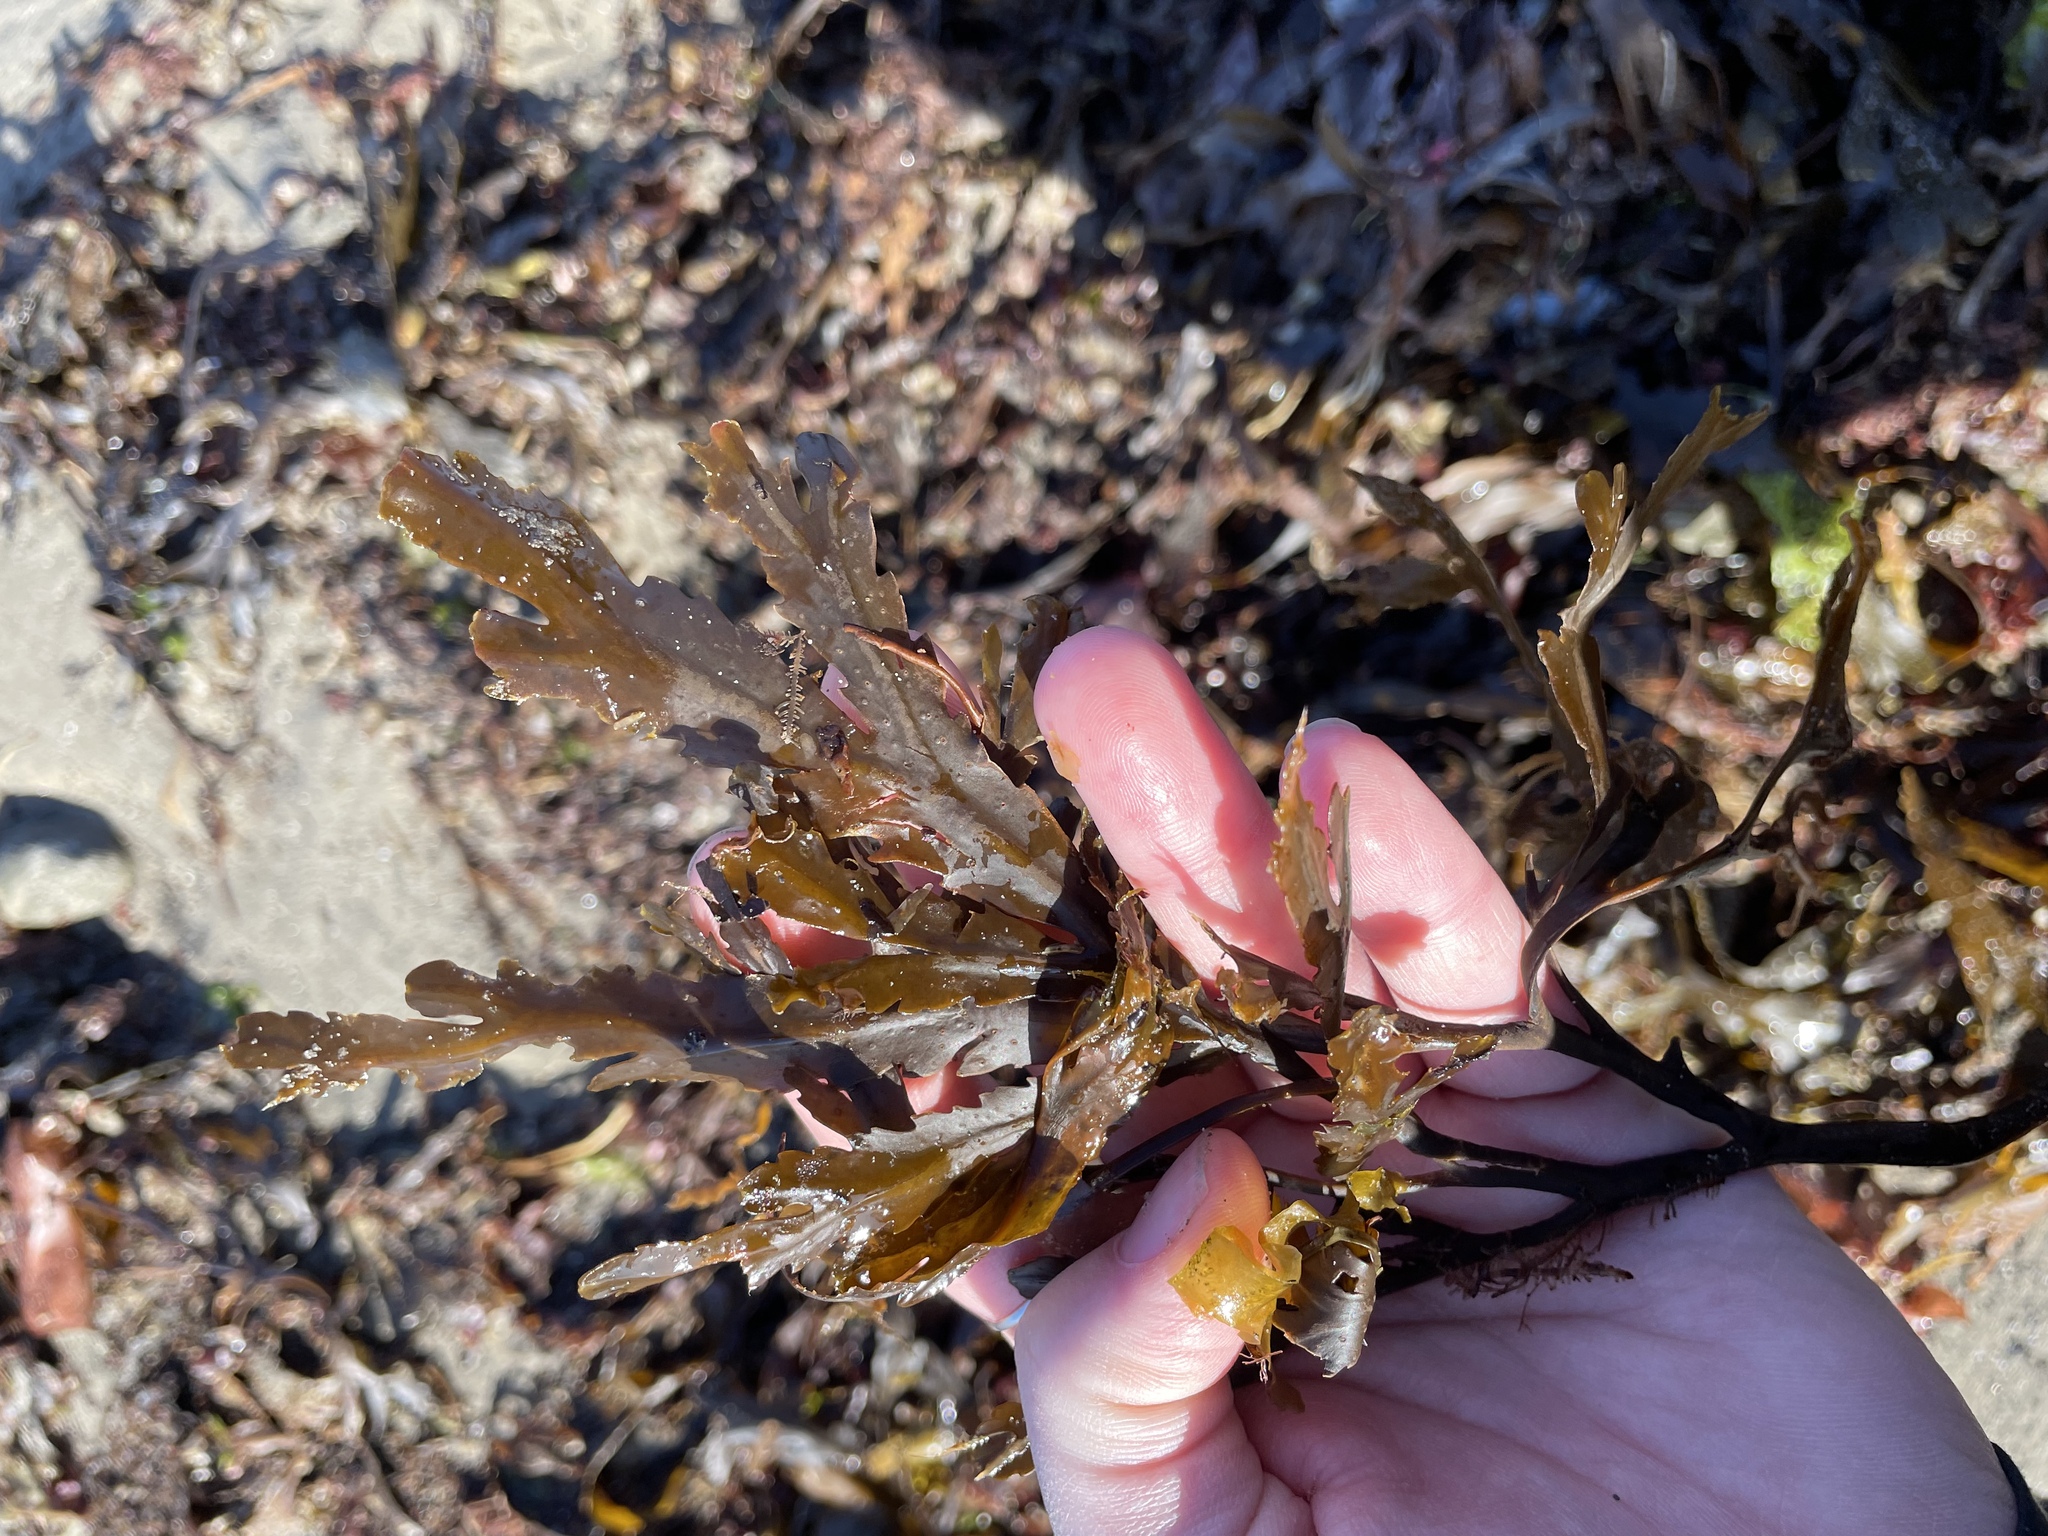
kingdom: Chromista
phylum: Ochrophyta
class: Phaeophyceae
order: Fucales
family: Fucaceae
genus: Fucus
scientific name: Fucus serratus
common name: Toothed wrack
